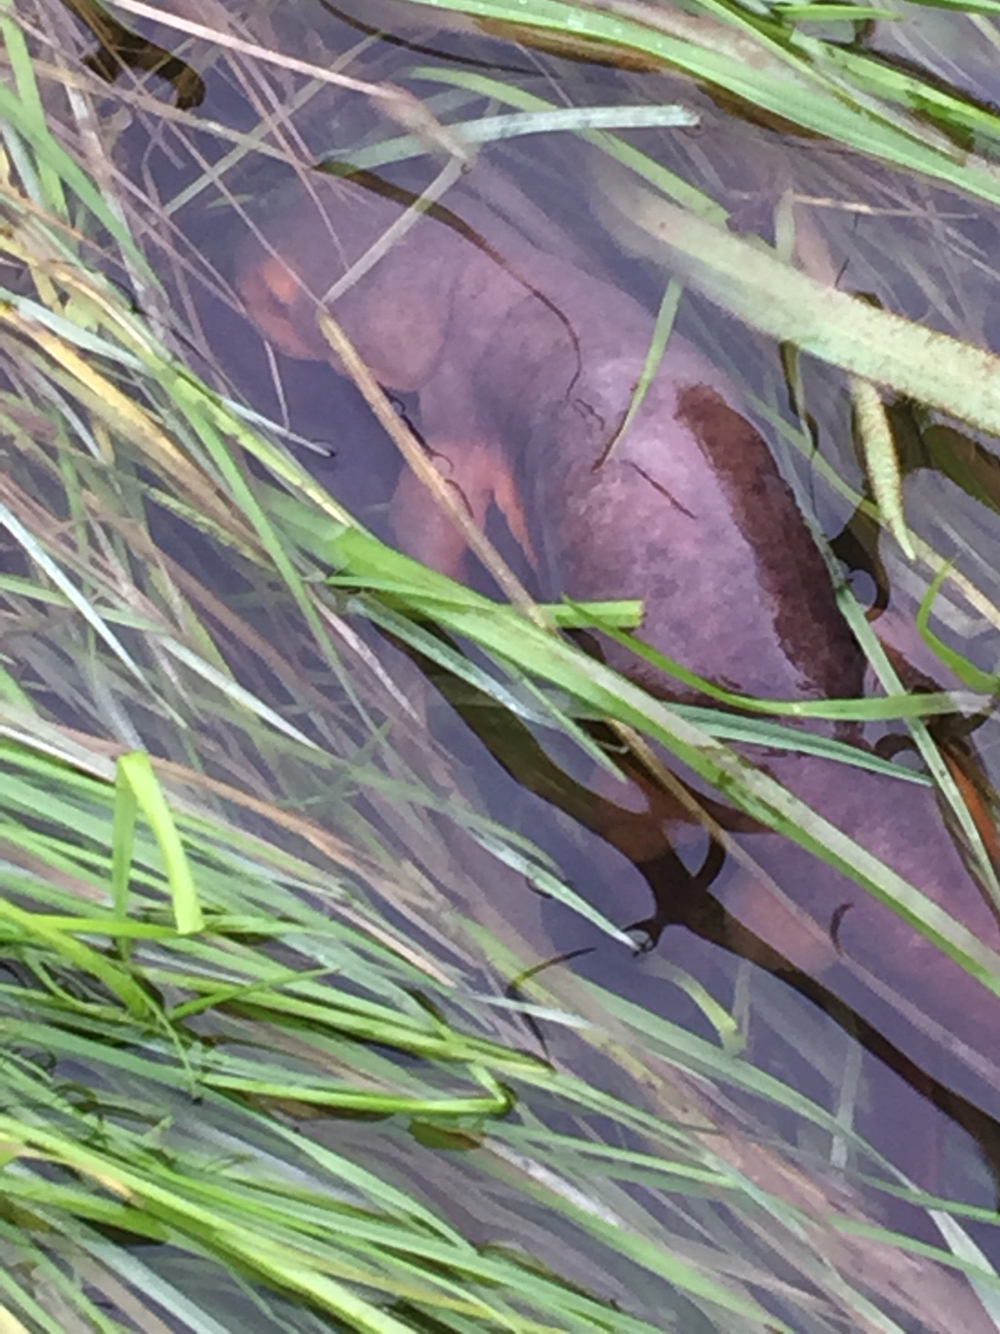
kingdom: Animalia
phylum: Chordata
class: Amphibia
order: Caudata
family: Salamandridae
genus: Taricha
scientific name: Taricha torosa
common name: California newt
